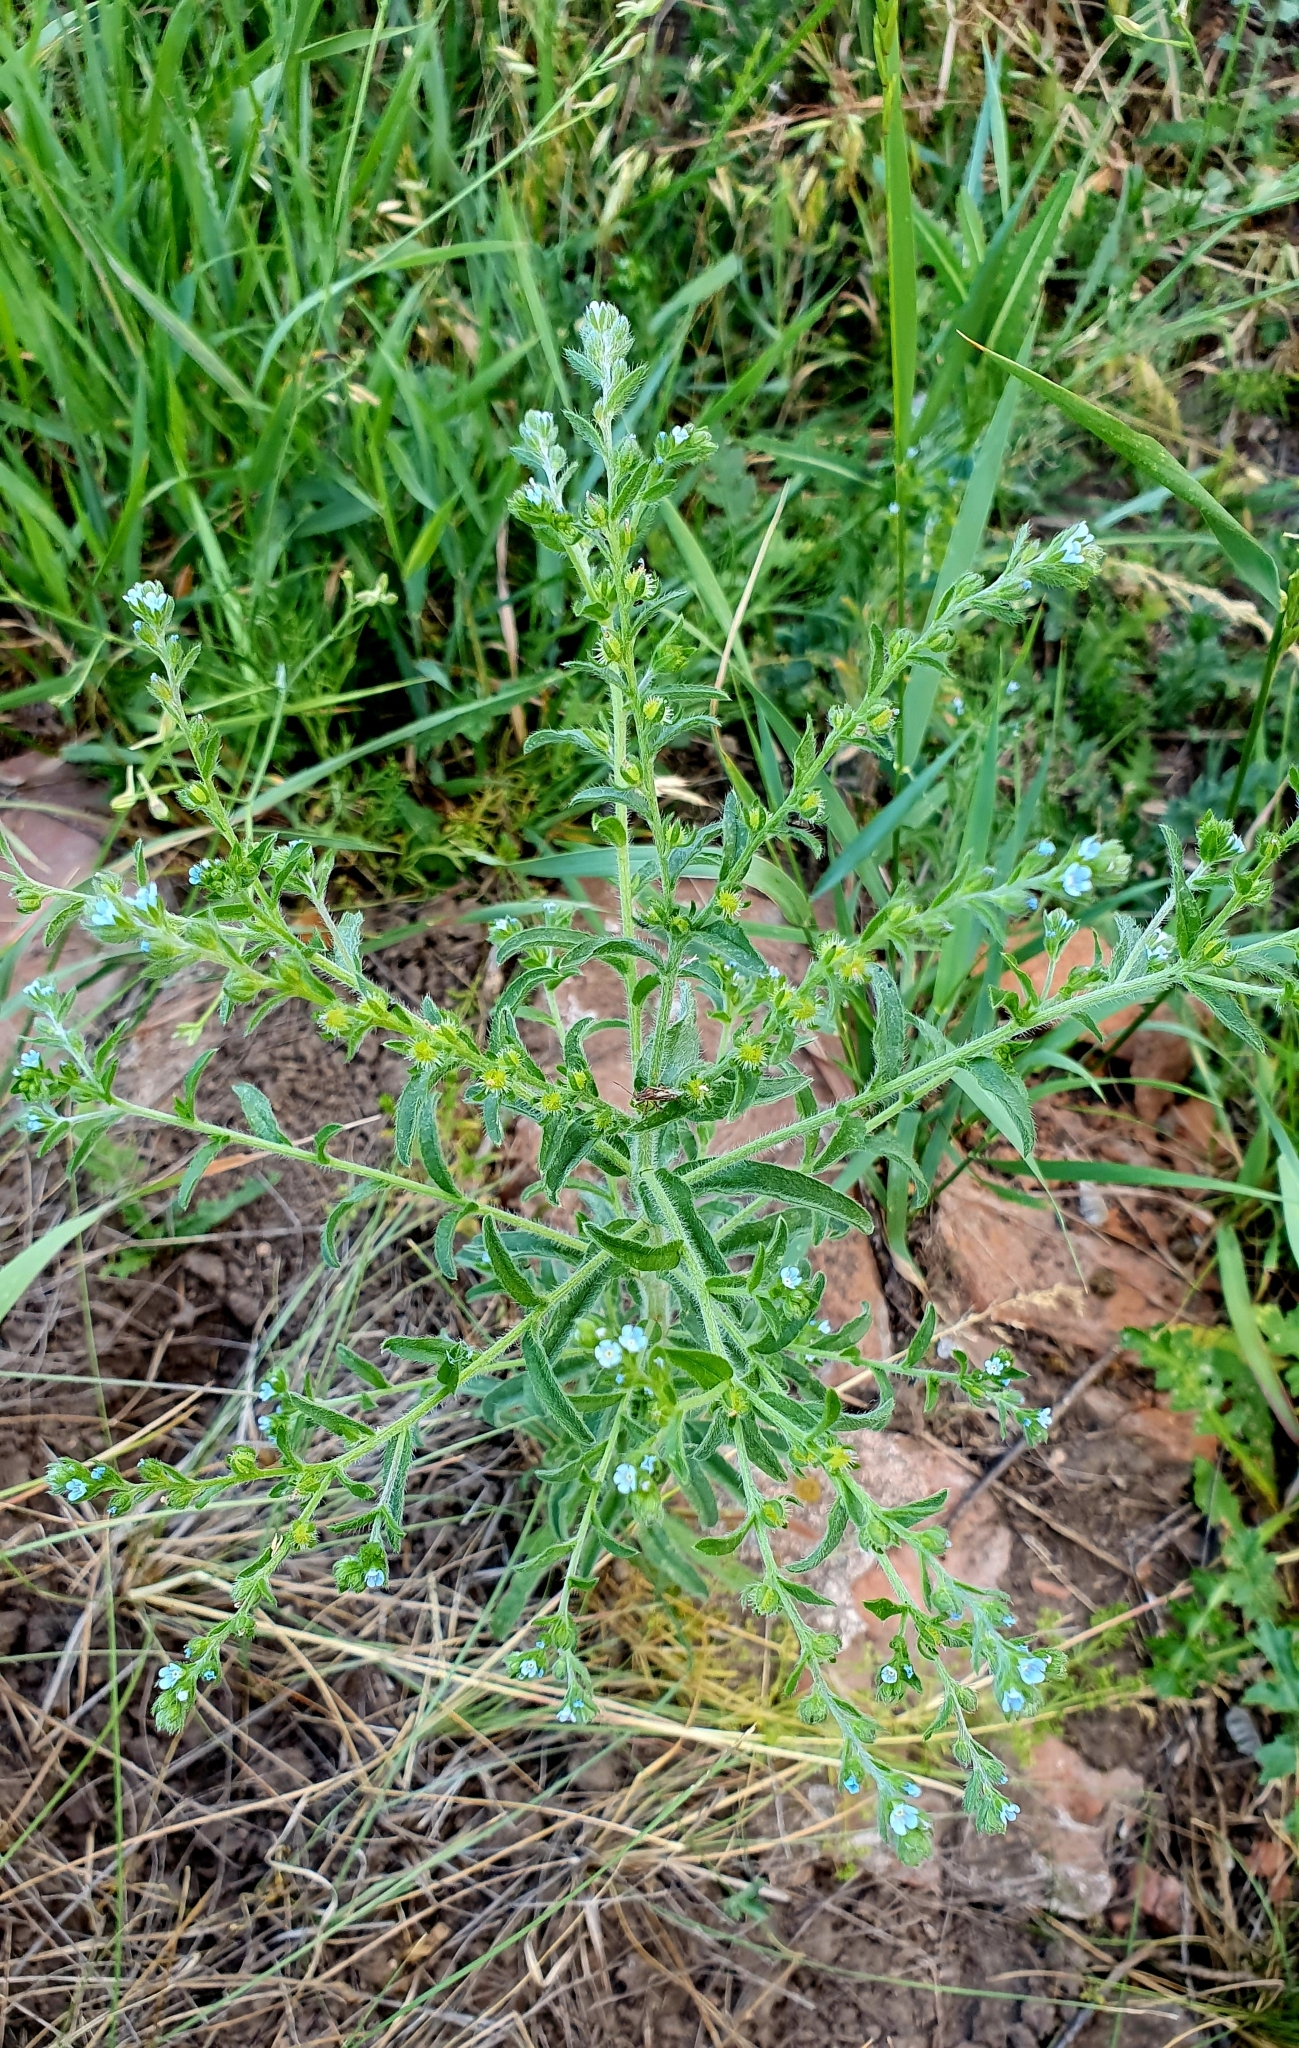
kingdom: Plantae
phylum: Tracheophyta
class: Magnoliopsida
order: Boraginales
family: Boraginaceae
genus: Lappula
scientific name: Lappula squarrosa
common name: European stickseed
